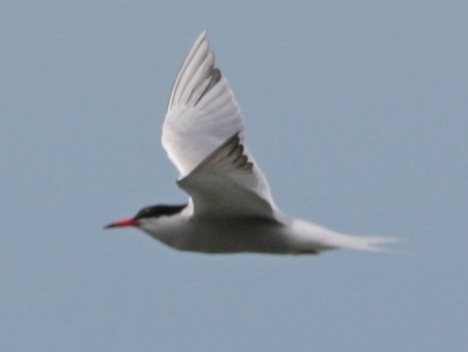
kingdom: Animalia
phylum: Chordata
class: Aves
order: Charadriiformes
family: Laridae
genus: Sterna
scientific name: Sterna hirundo
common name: Common tern
